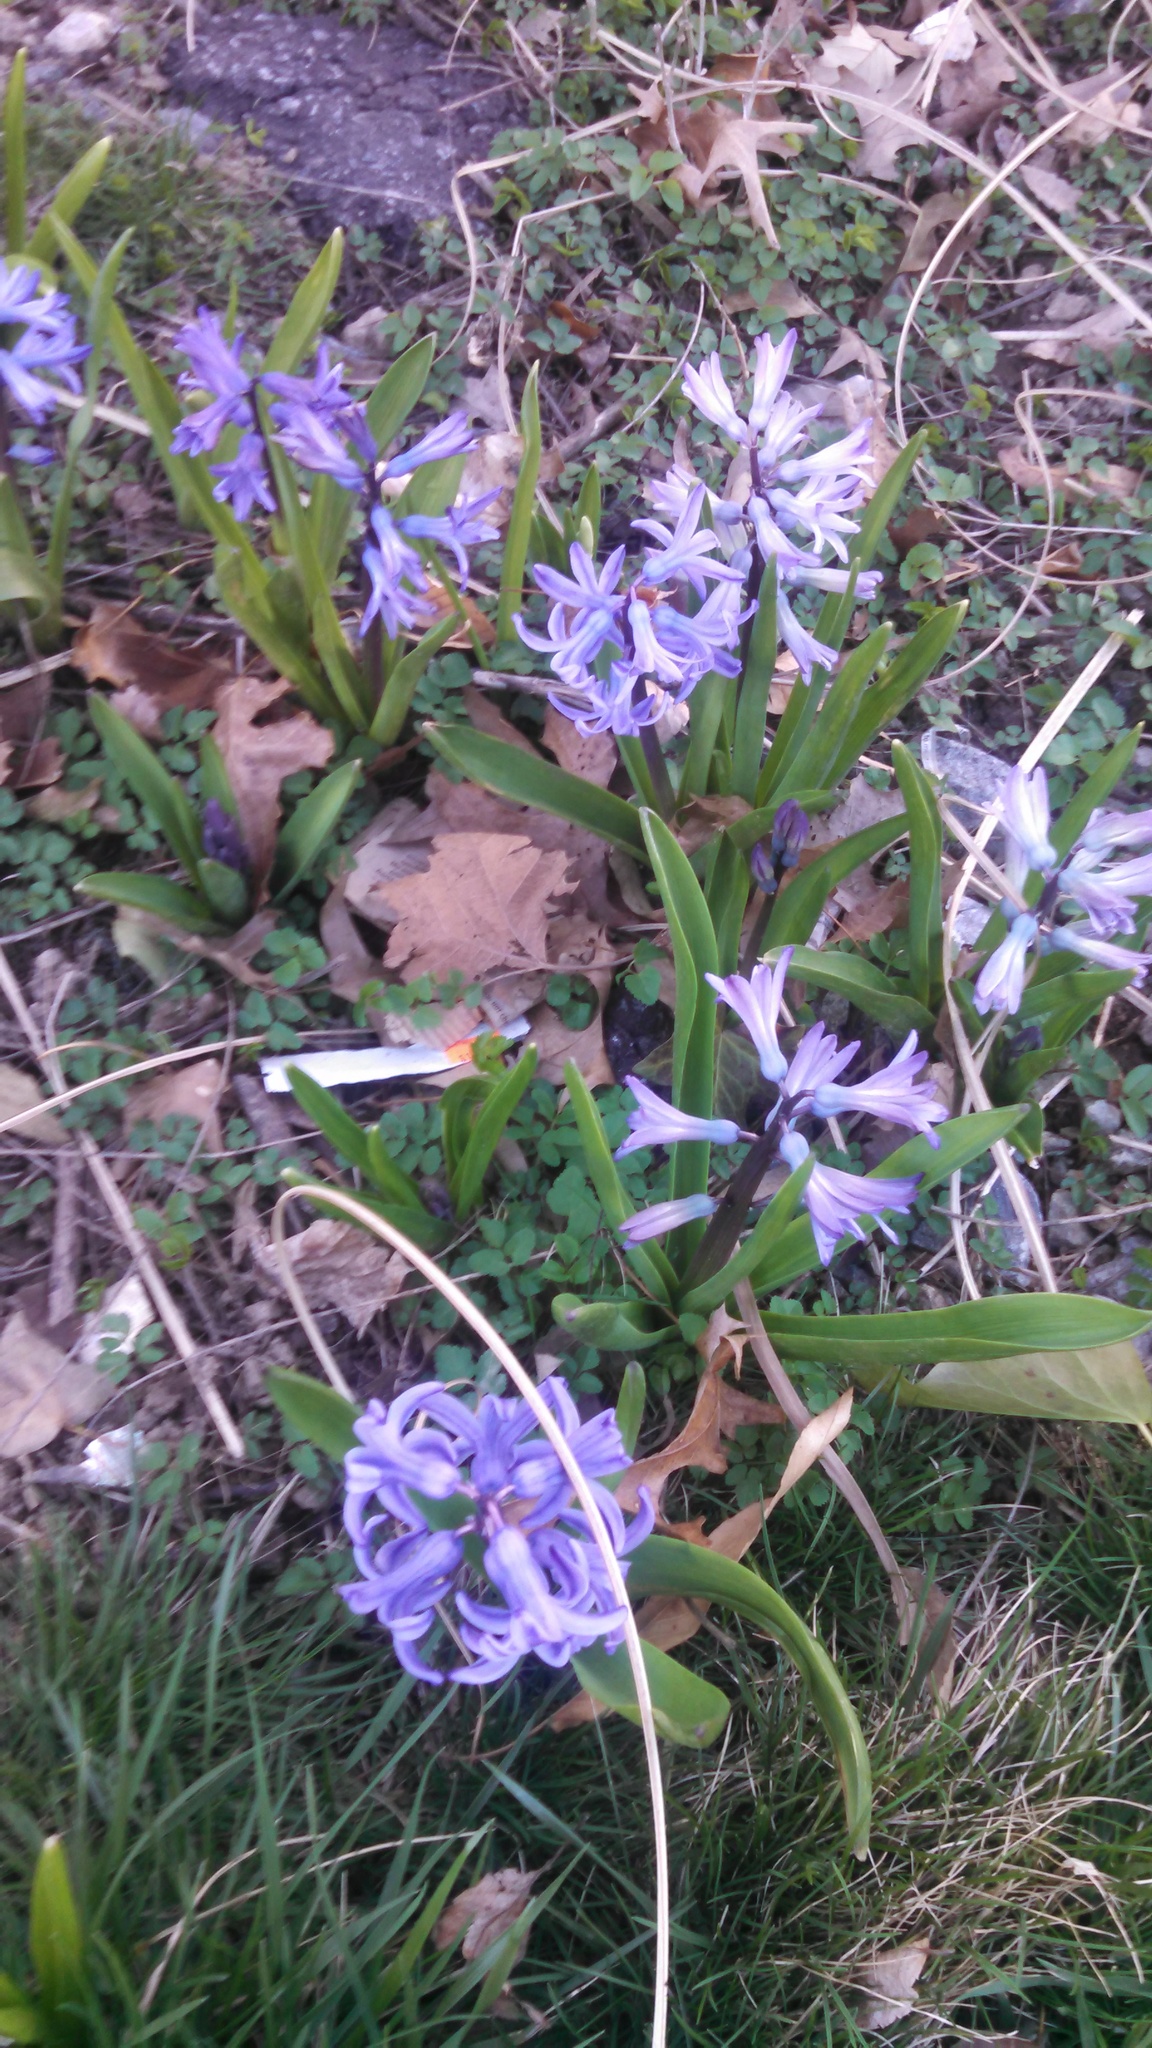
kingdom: Plantae
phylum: Tracheophyta
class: Liliopsida
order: Asparagales
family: Asparagaceae
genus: Hyacinthus
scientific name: Hyacinthus orientalis
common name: Hyacinth
